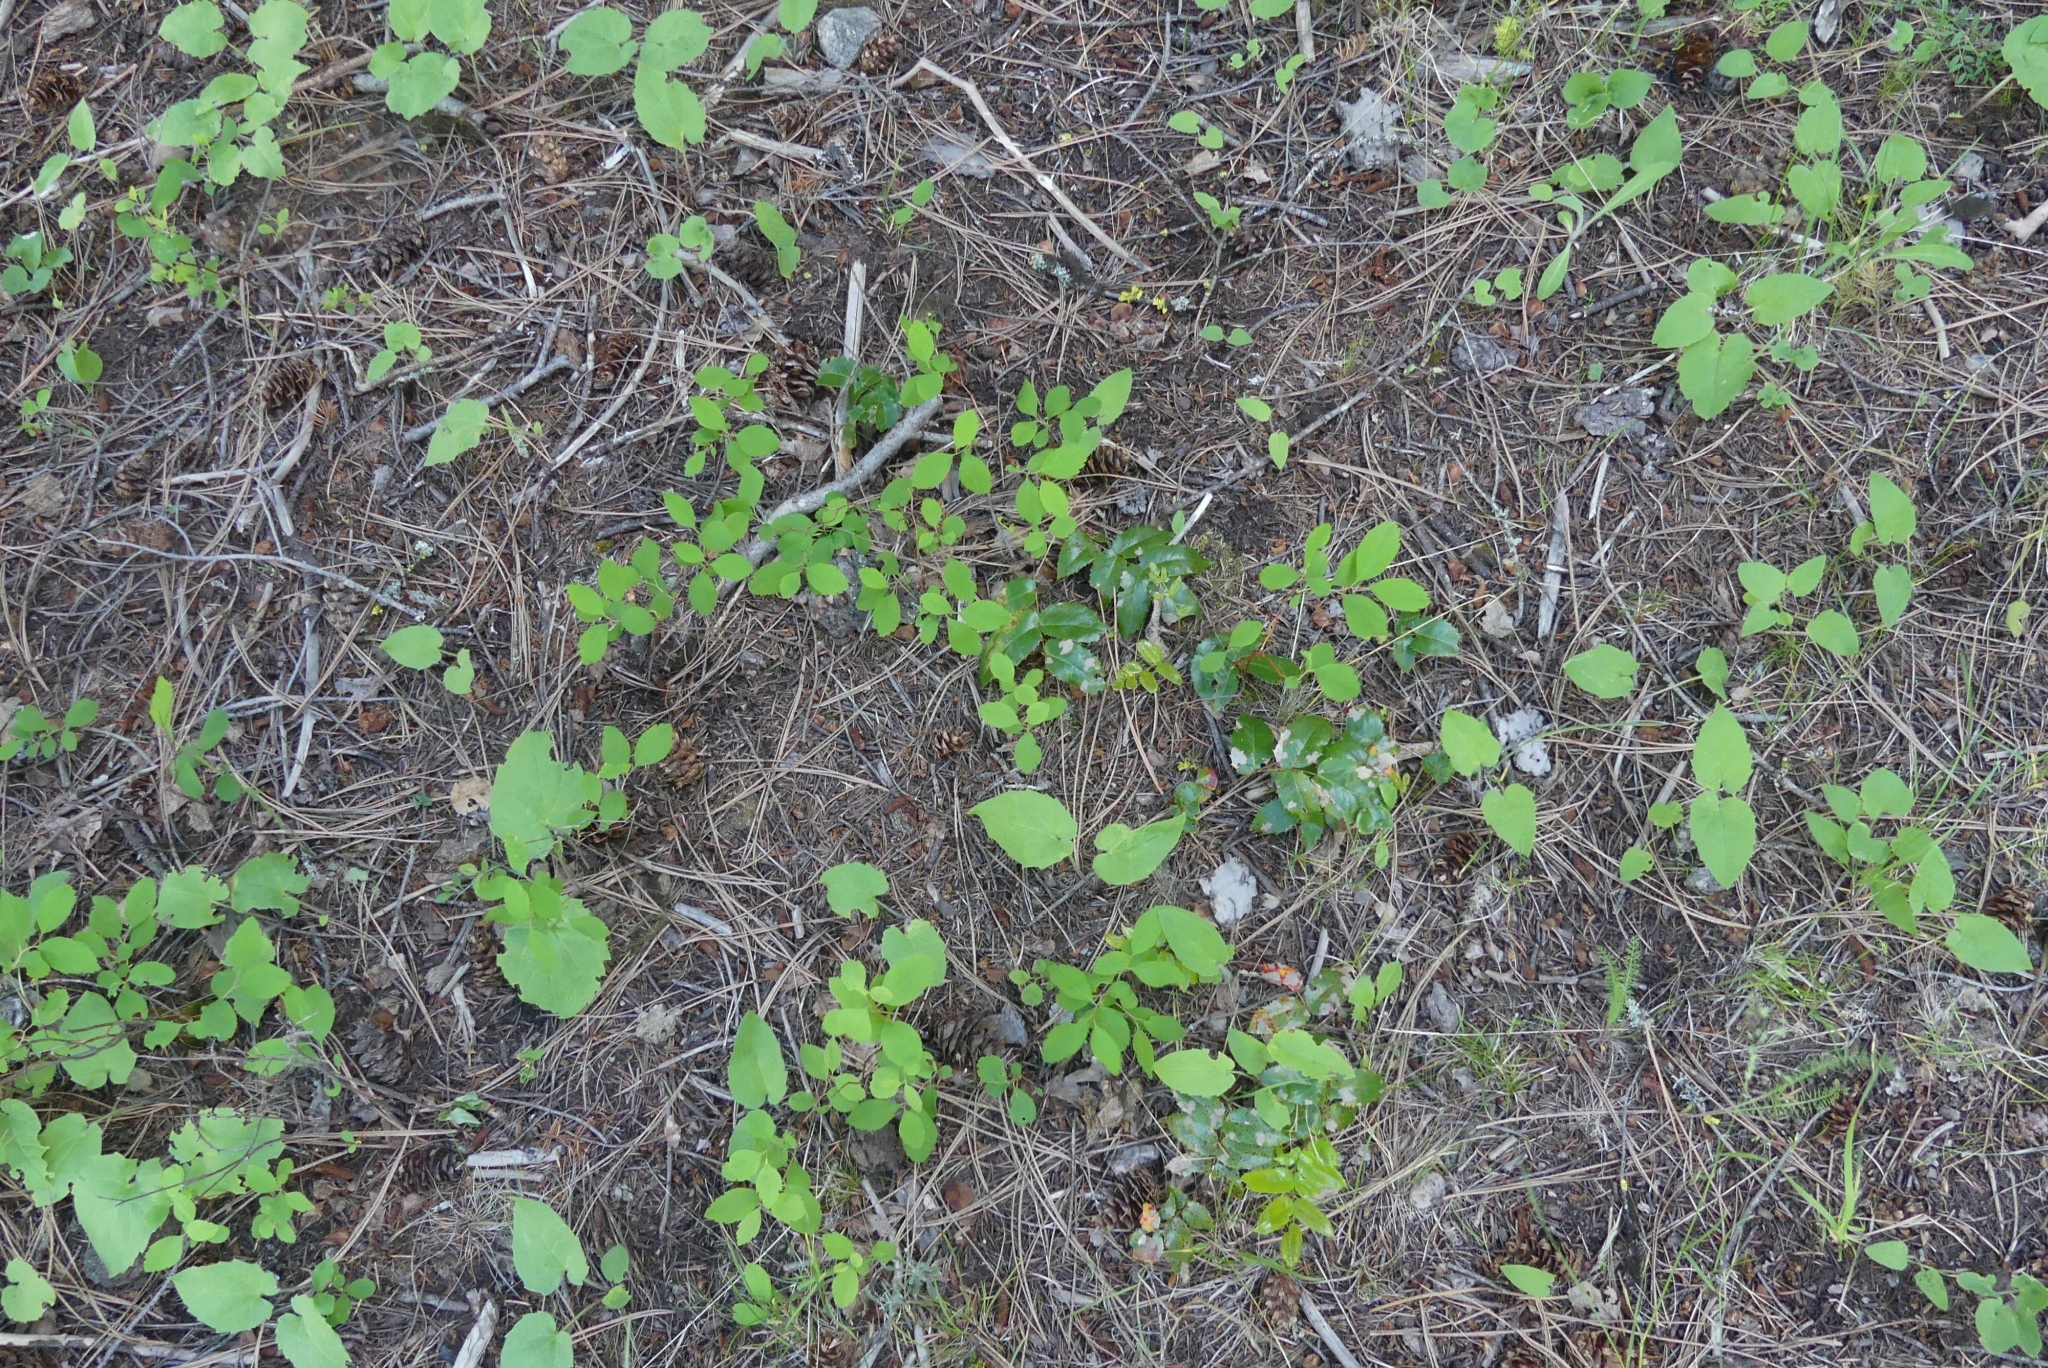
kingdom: Plantae
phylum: Tracheophyta
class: Magnoliopsida
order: Ranunculales
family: Berberidaceae
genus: Mahonia
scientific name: Mahonia aquifolium
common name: Oregon-grape
